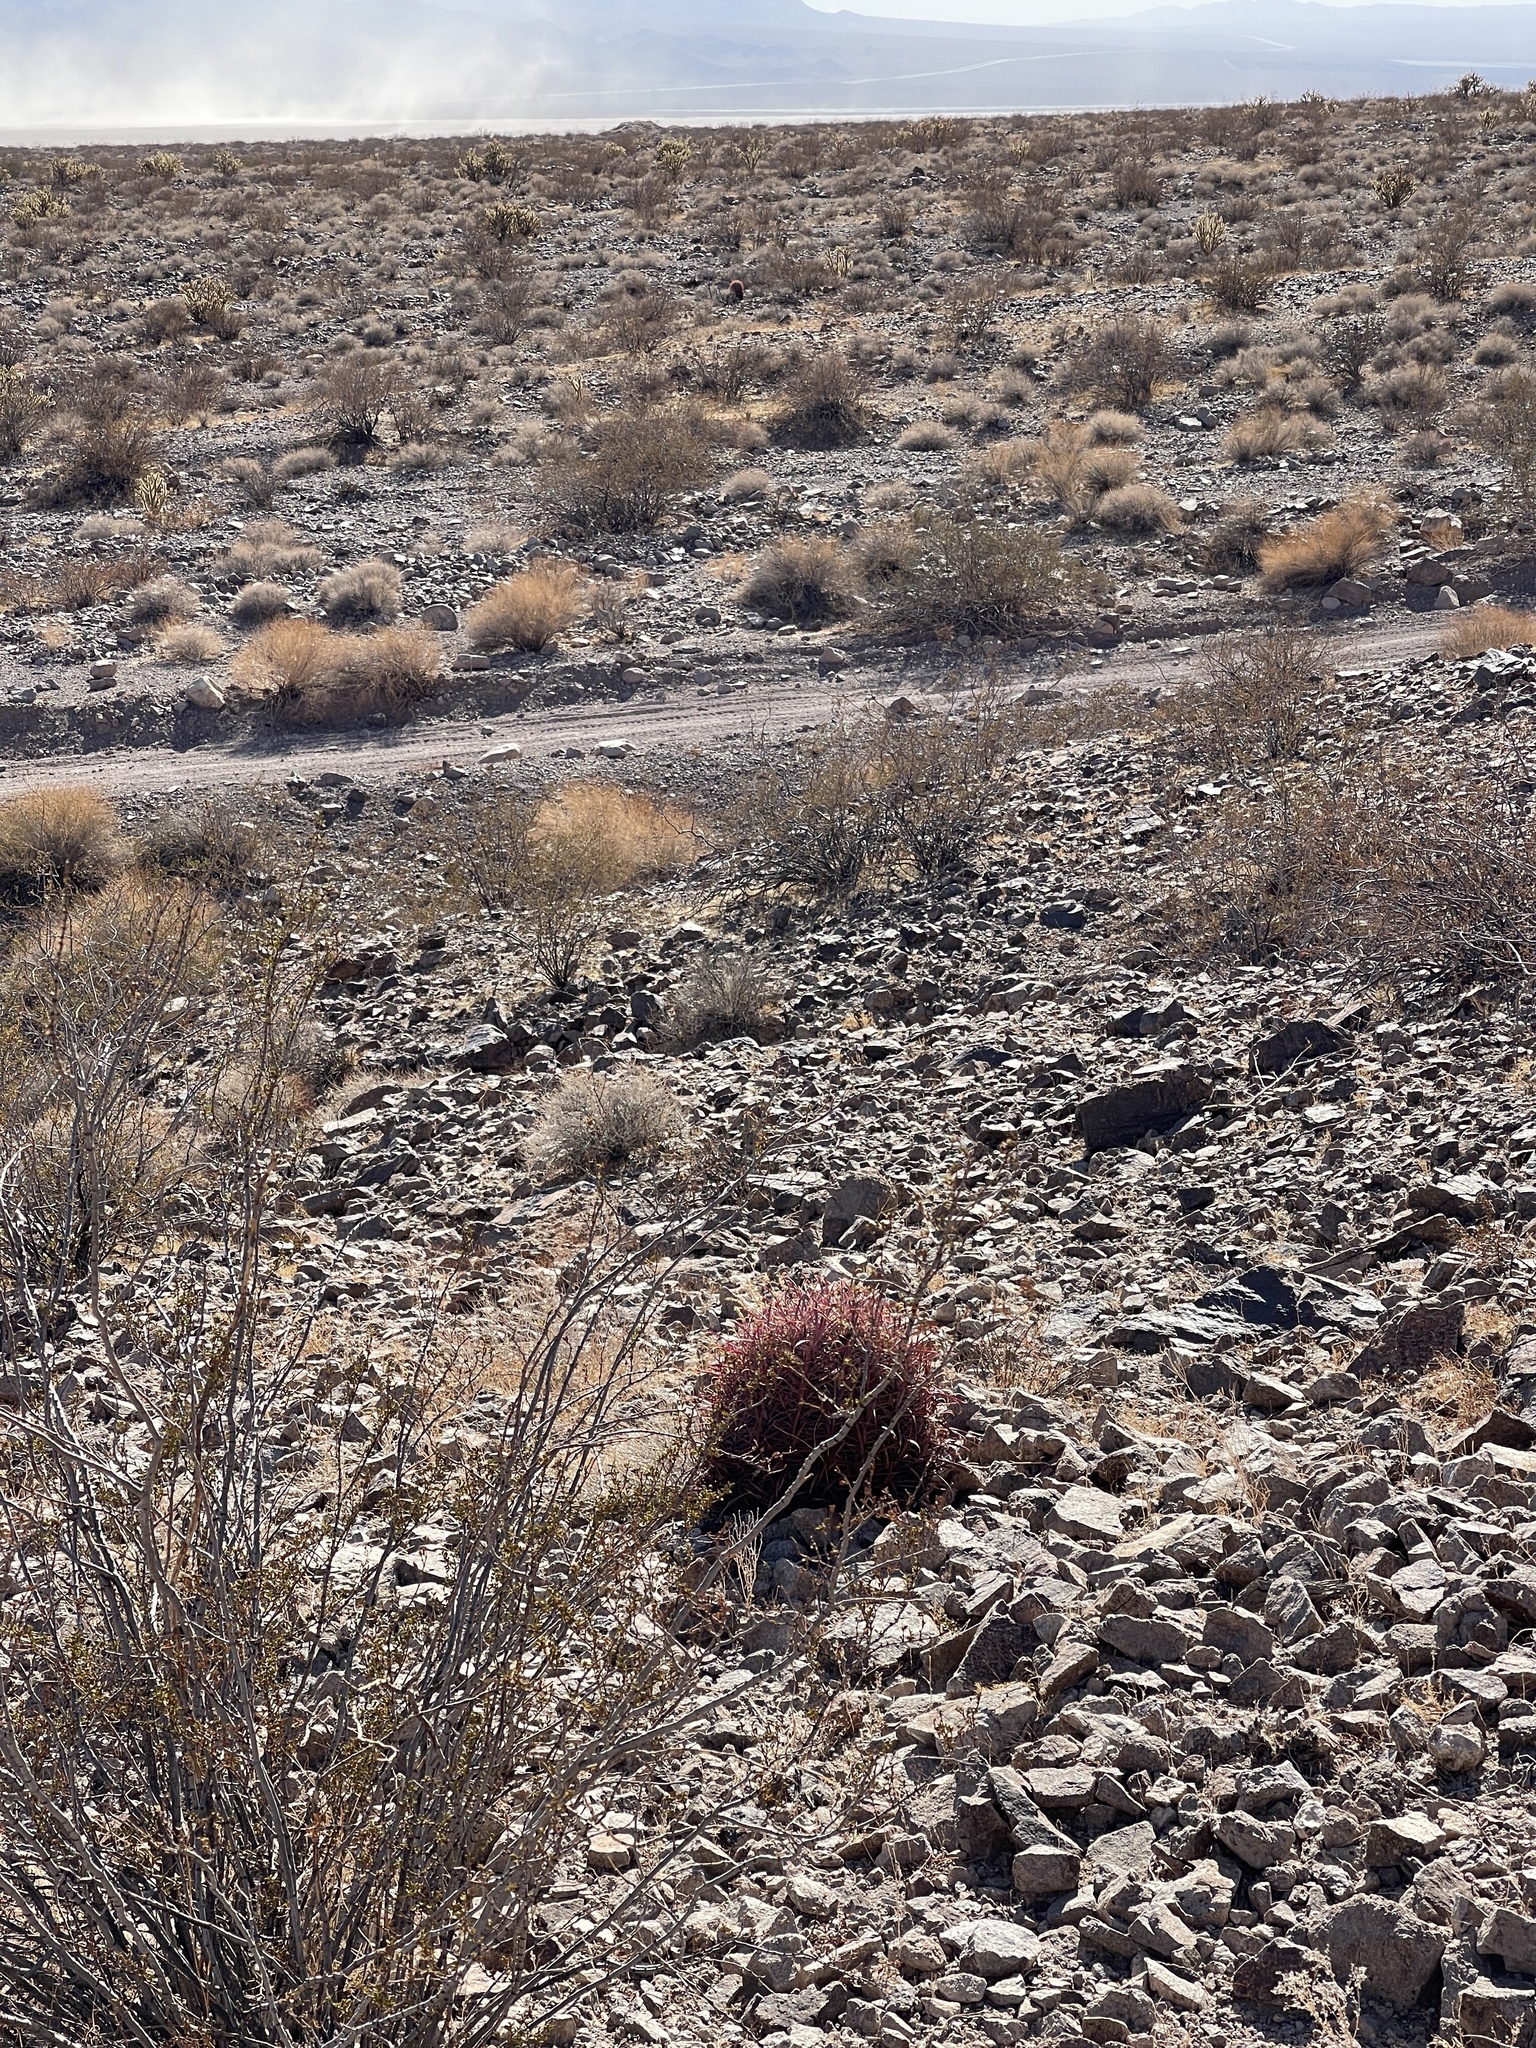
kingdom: Plantae
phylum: Tracheophyta
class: Magnoliopsida
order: Caryophyllales
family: Cactaceae
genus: Ferocactus
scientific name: Ferocactus cylindraceus
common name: California barrel cactus
